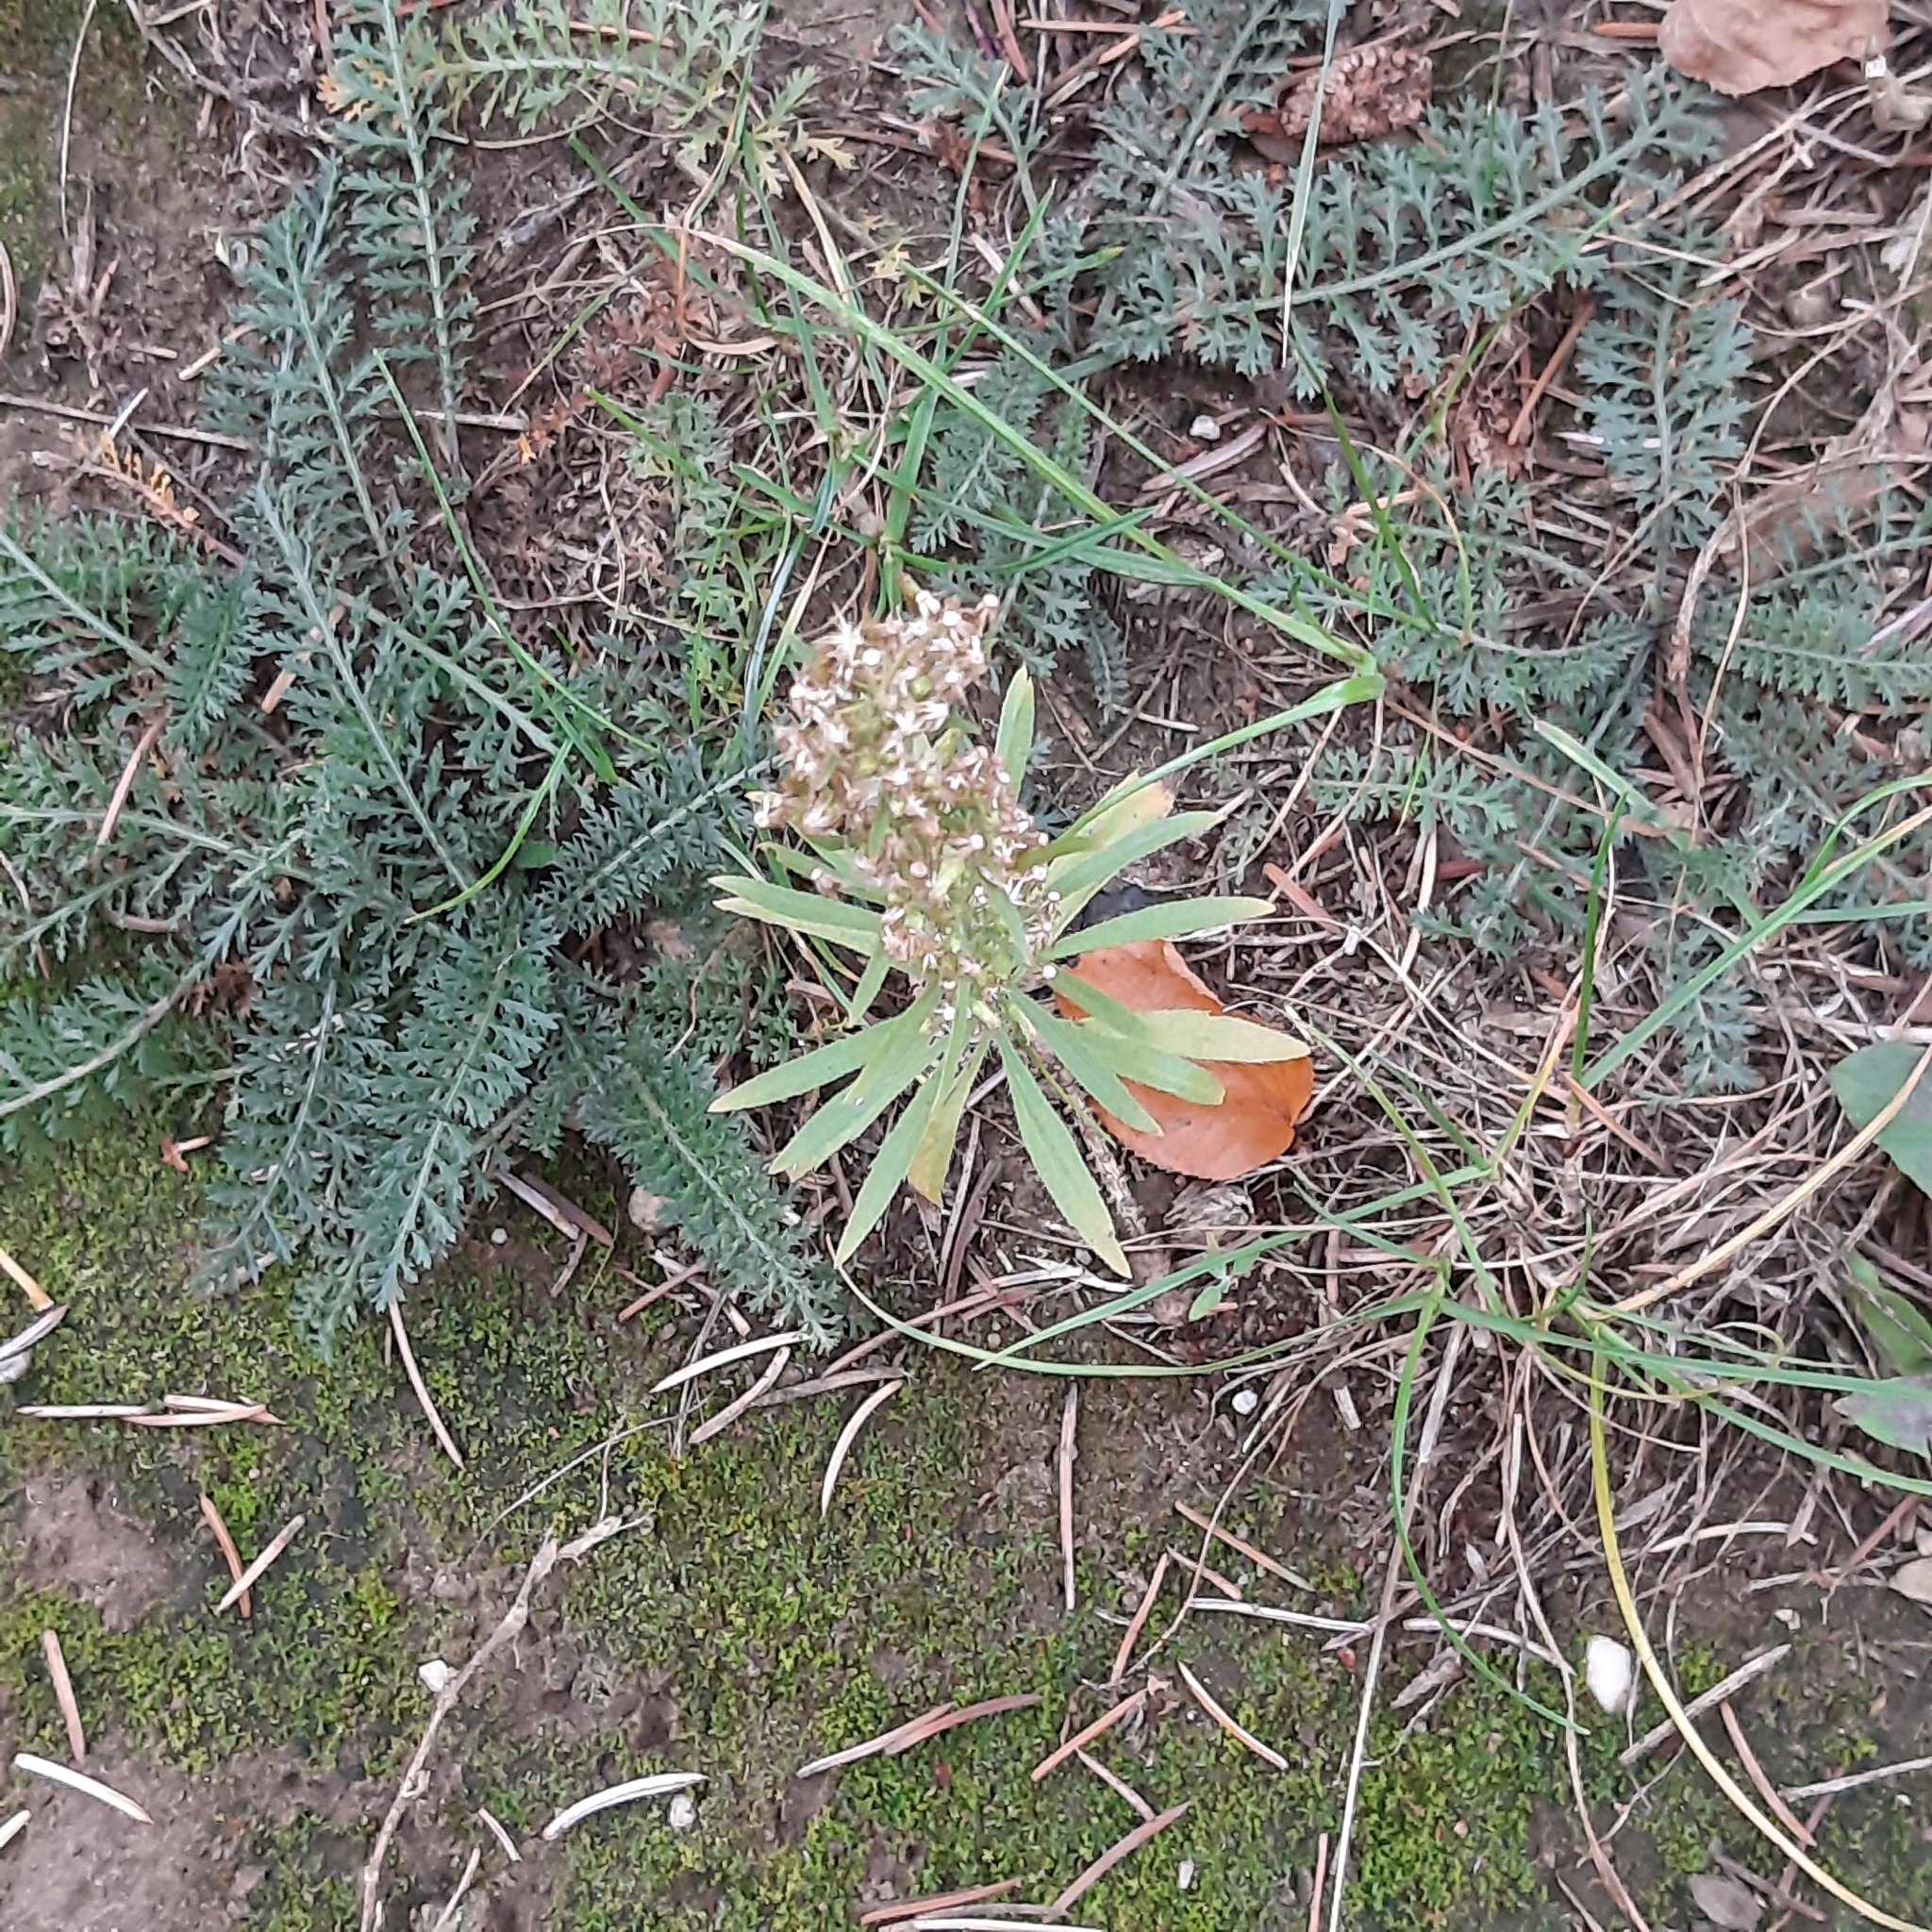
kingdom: Plantae
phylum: Tracheophyta
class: Magnoliopsida
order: Asterales
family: Asteraceae
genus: Erigeron
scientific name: Erigeron canadensis
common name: Canadian fleabane
